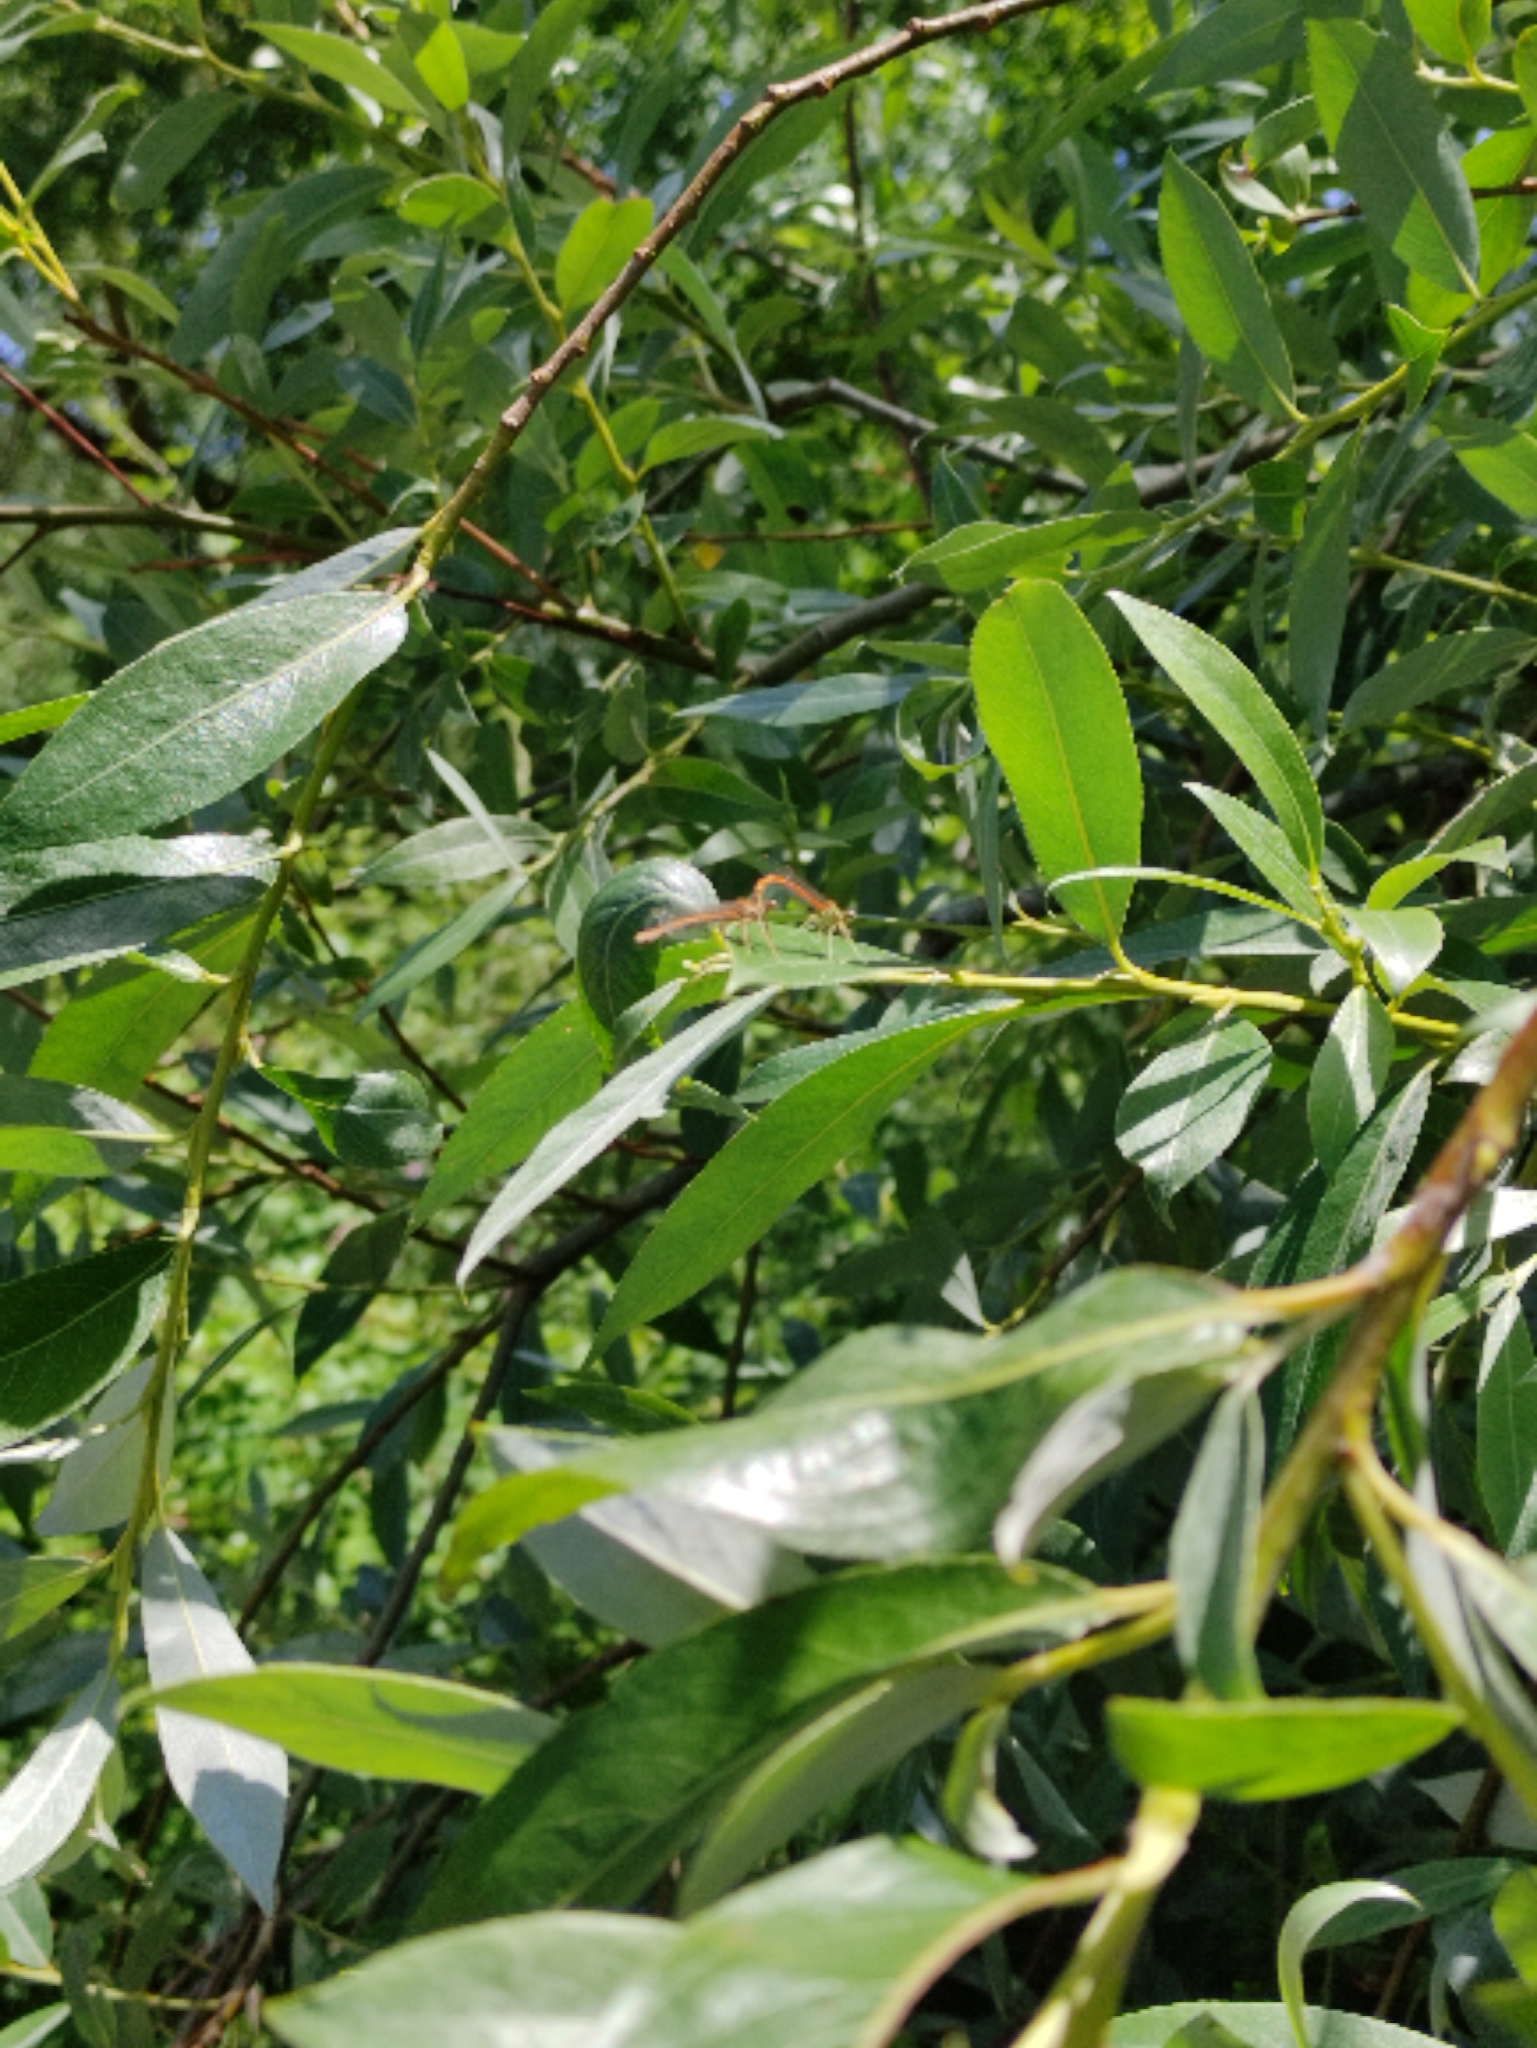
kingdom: Animalia
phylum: Arthropoda
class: Insecta
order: Odonata
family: Platycnemididae
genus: Platycnemis
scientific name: Platycnemis acutipennis
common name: Orange featherleg
